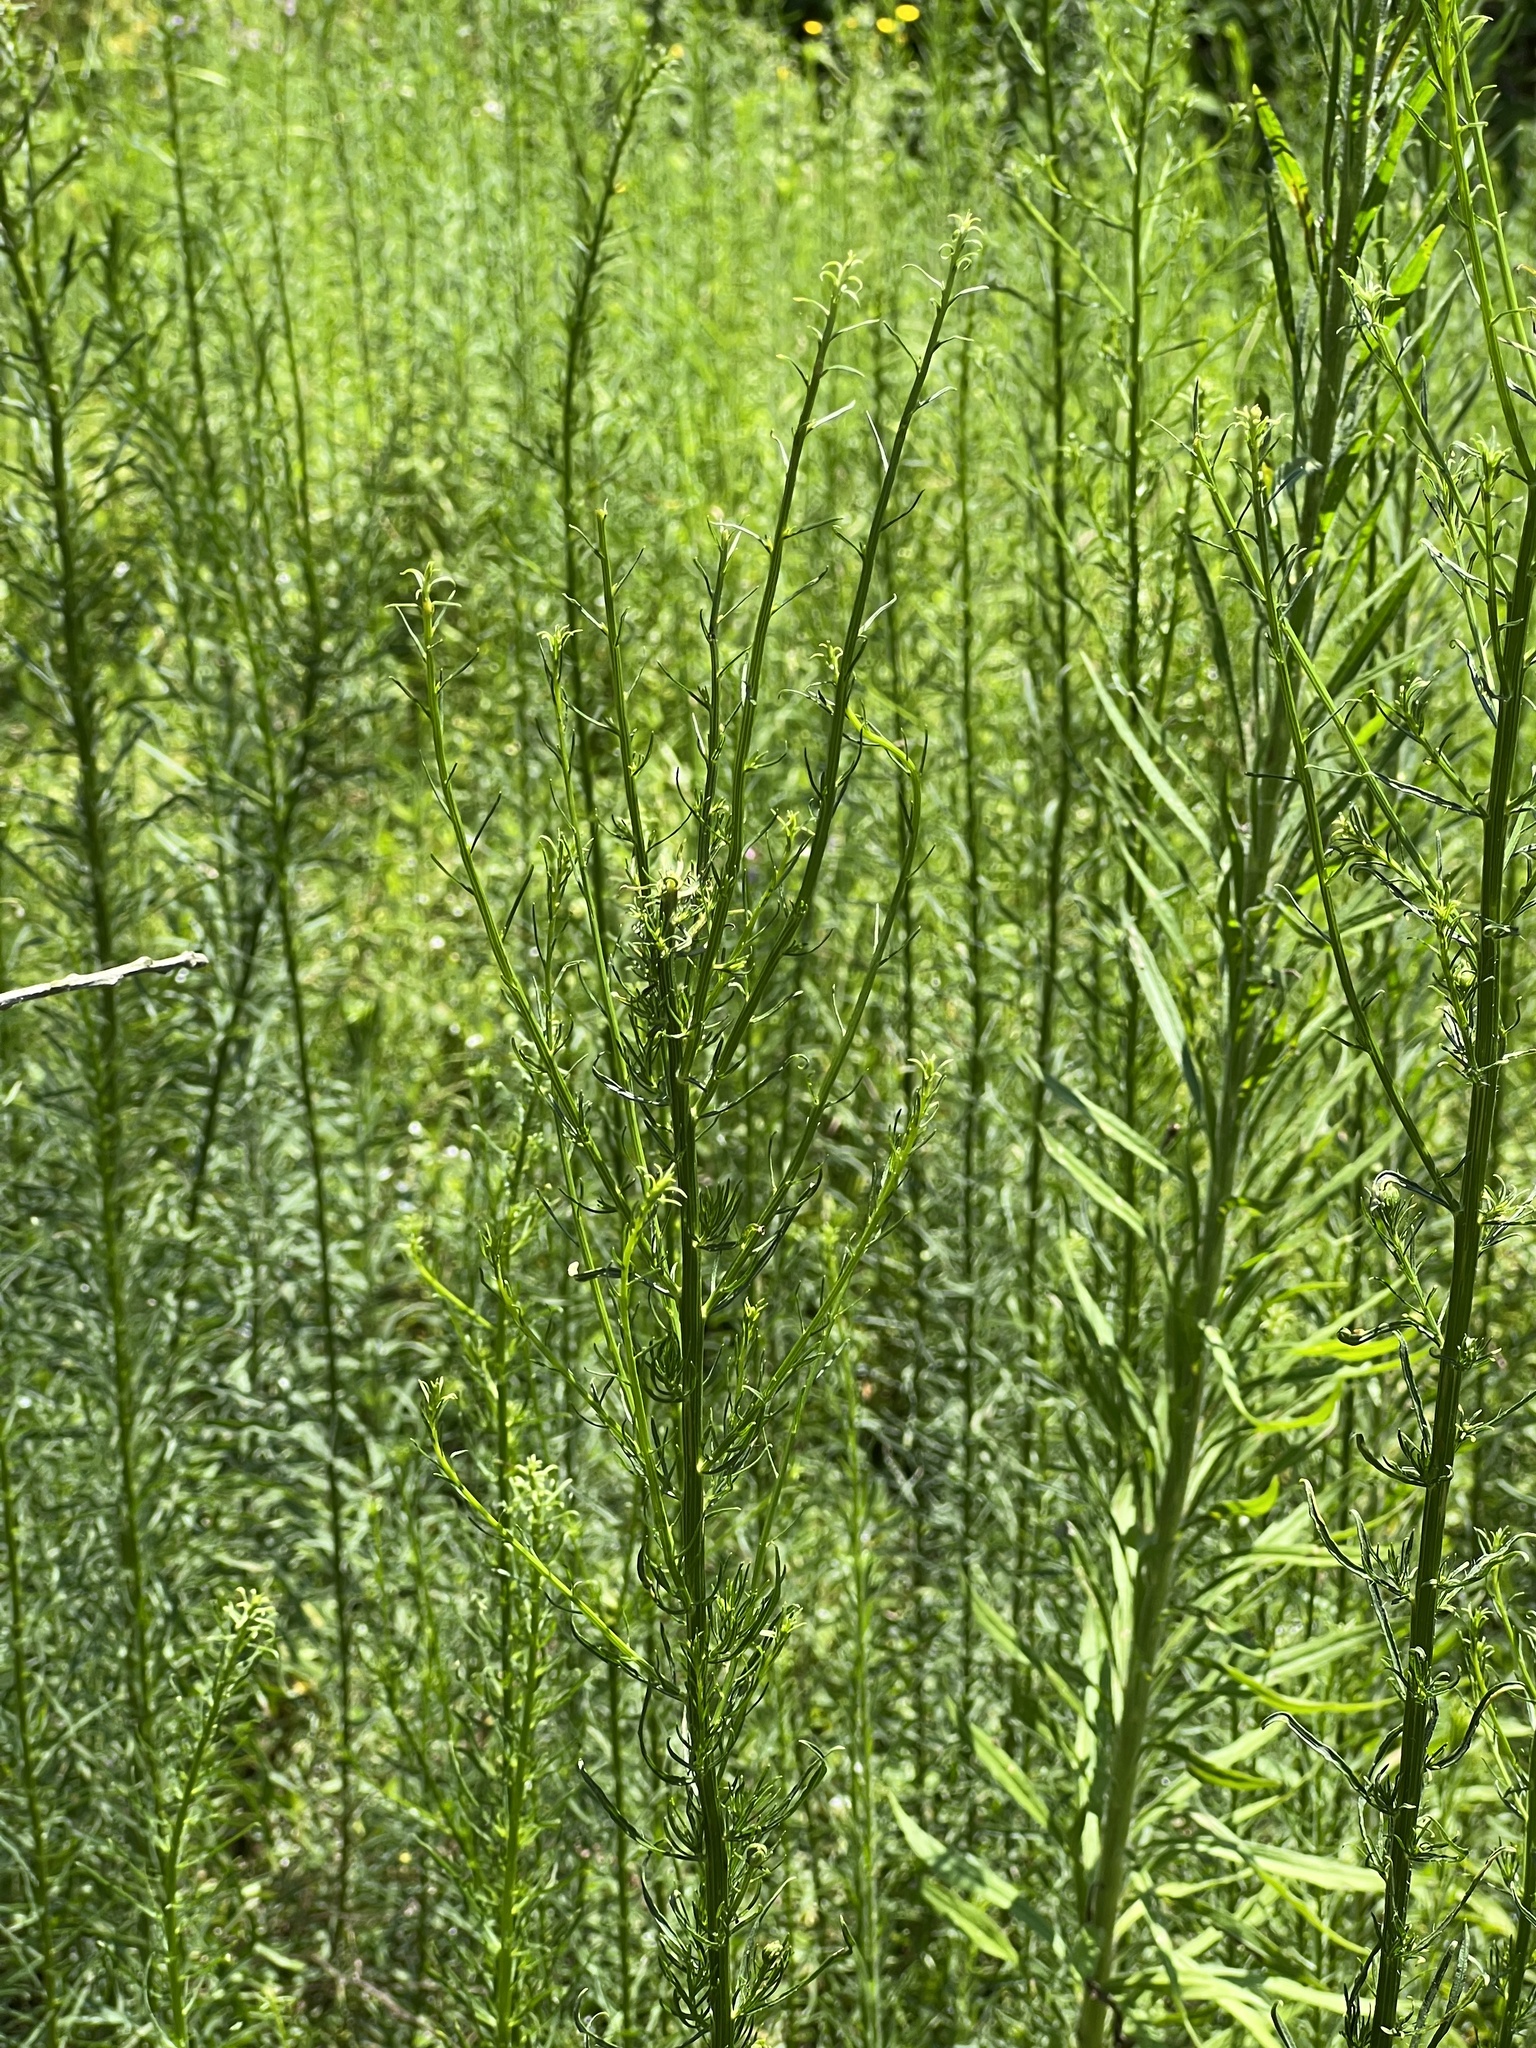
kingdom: Plantae
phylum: Tracheophyta
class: Magnoliopsida
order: Asterales
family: Asteraceae
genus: Erigeron
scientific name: Erigeron canadensis
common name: Canadian fleabane
